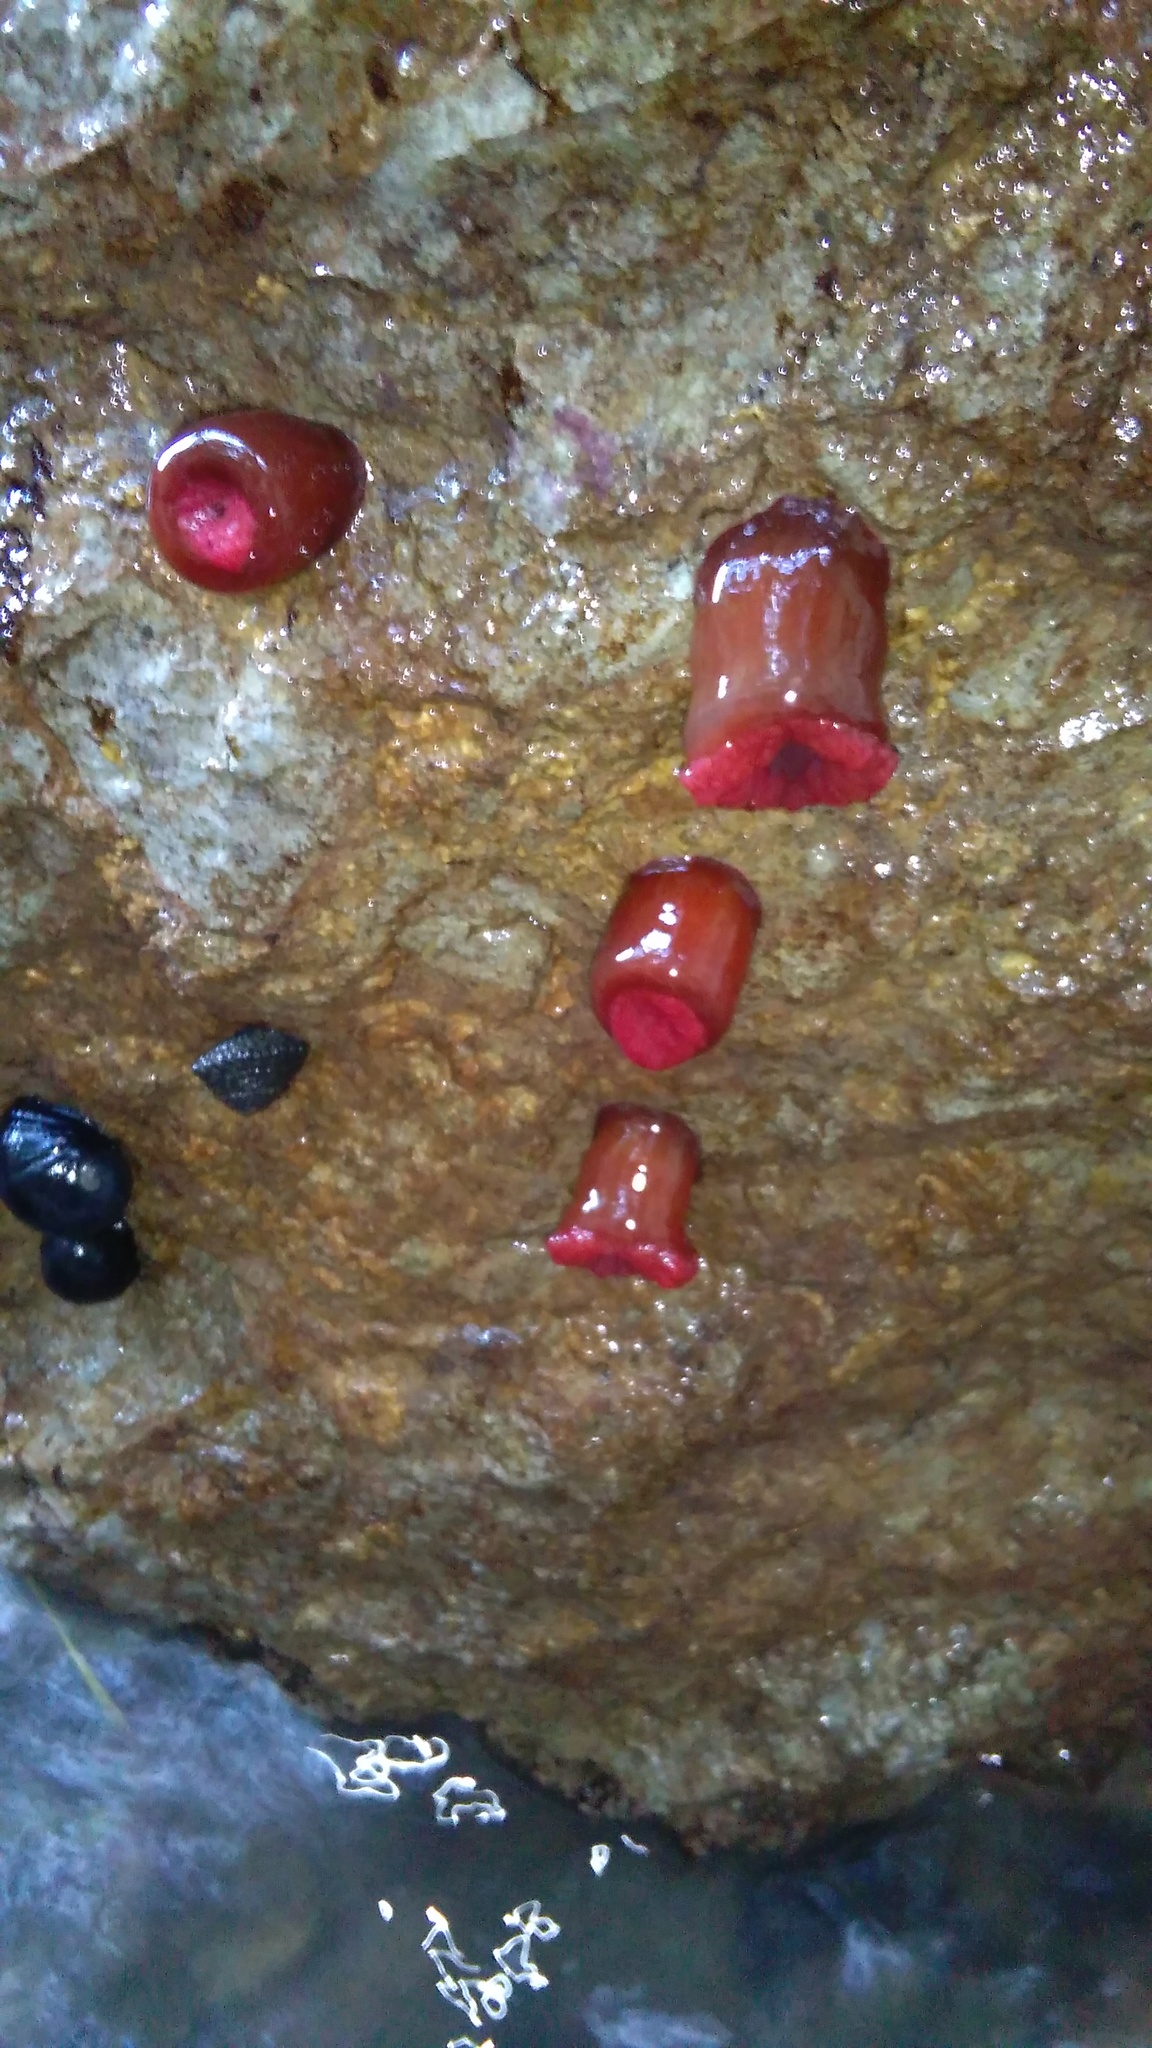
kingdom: Animalia
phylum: Cnidaria
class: Anthozoa
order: Actiniaria
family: Actiniidae
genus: Actinia
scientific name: Actinia tenebrosa
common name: Waratah anemone
